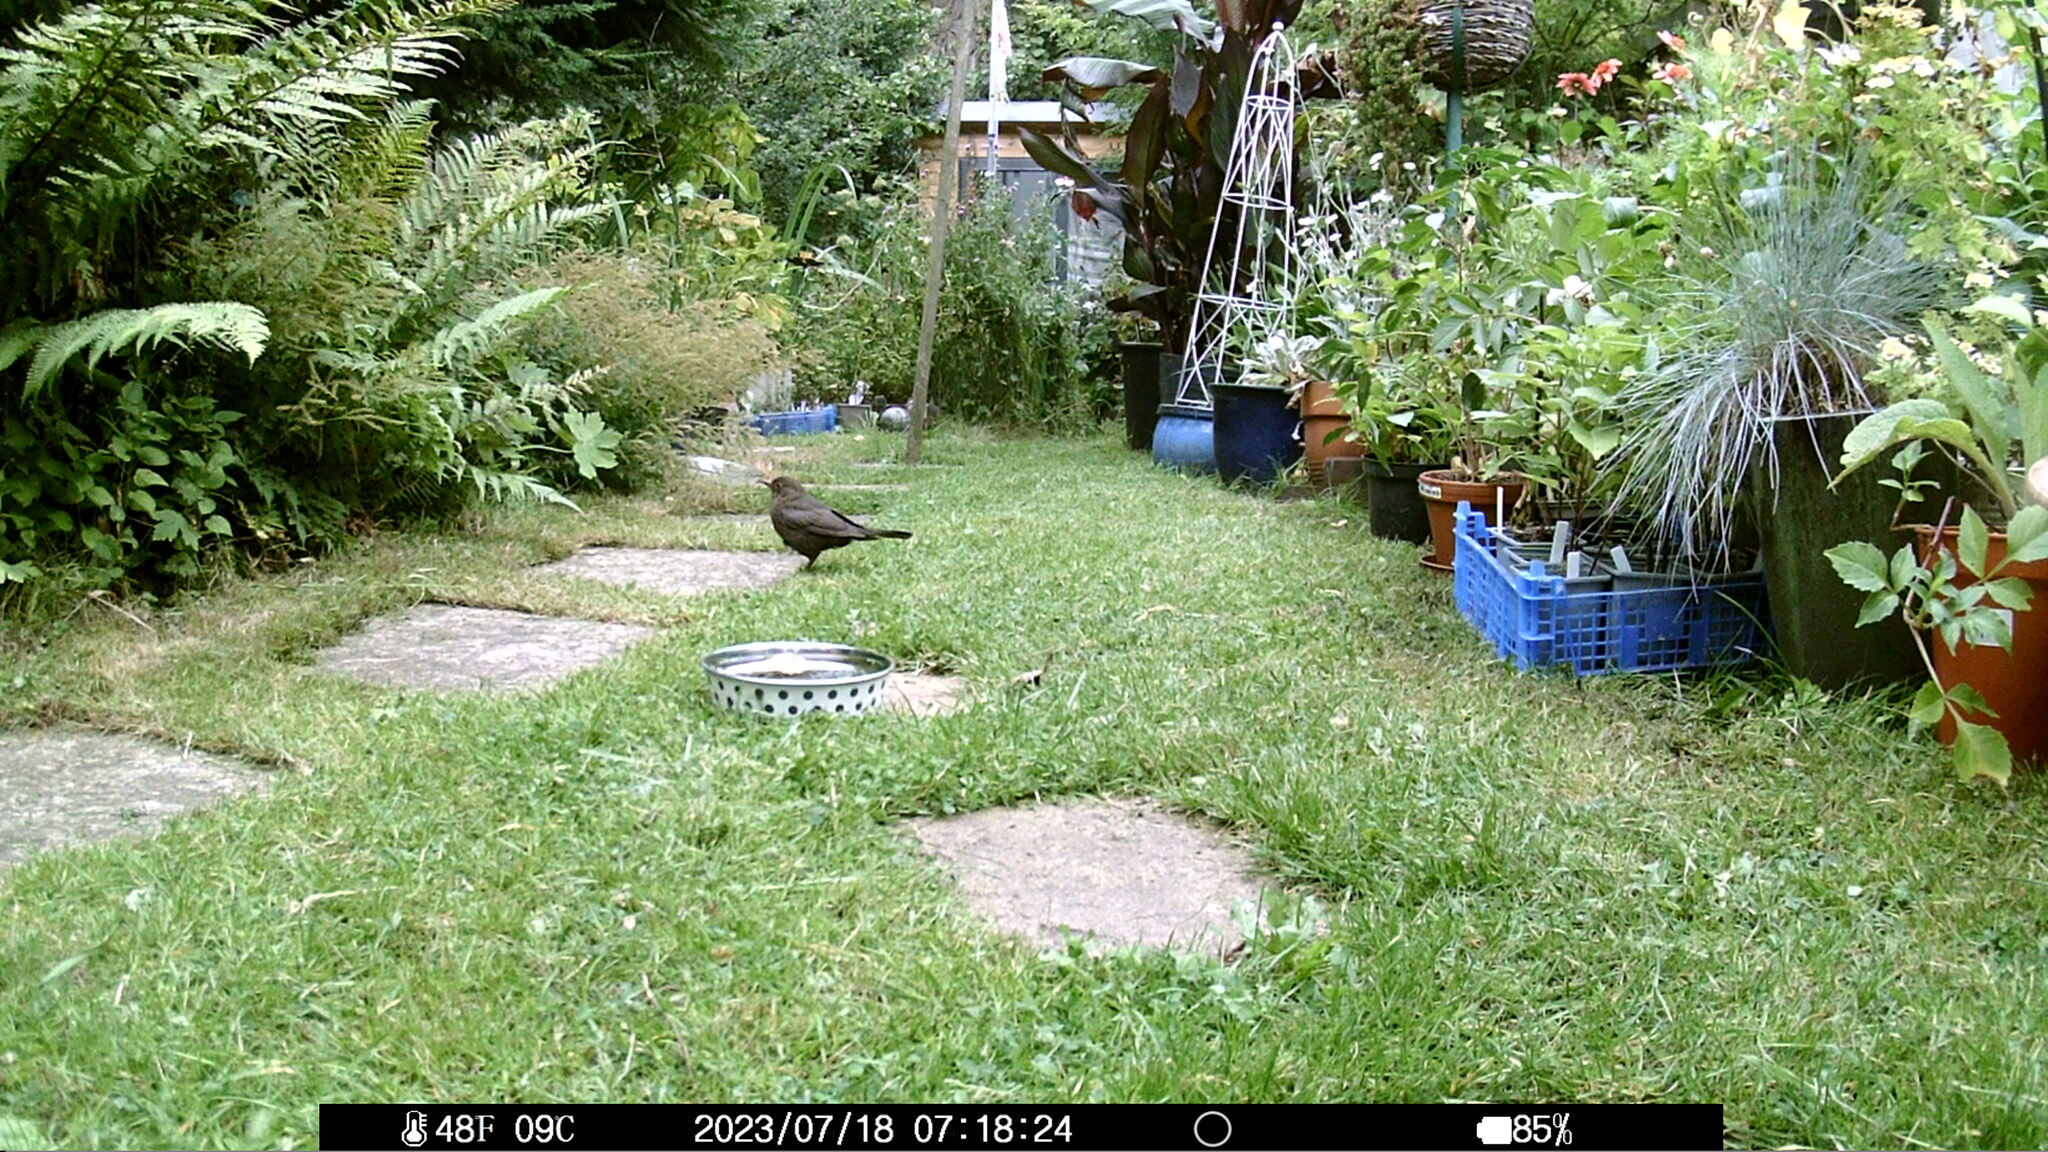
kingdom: Animalia
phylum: Chordata
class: Aves
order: Passeriformes
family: Turdidae
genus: Turdus
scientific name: Turdus merula
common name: Common blackbird
